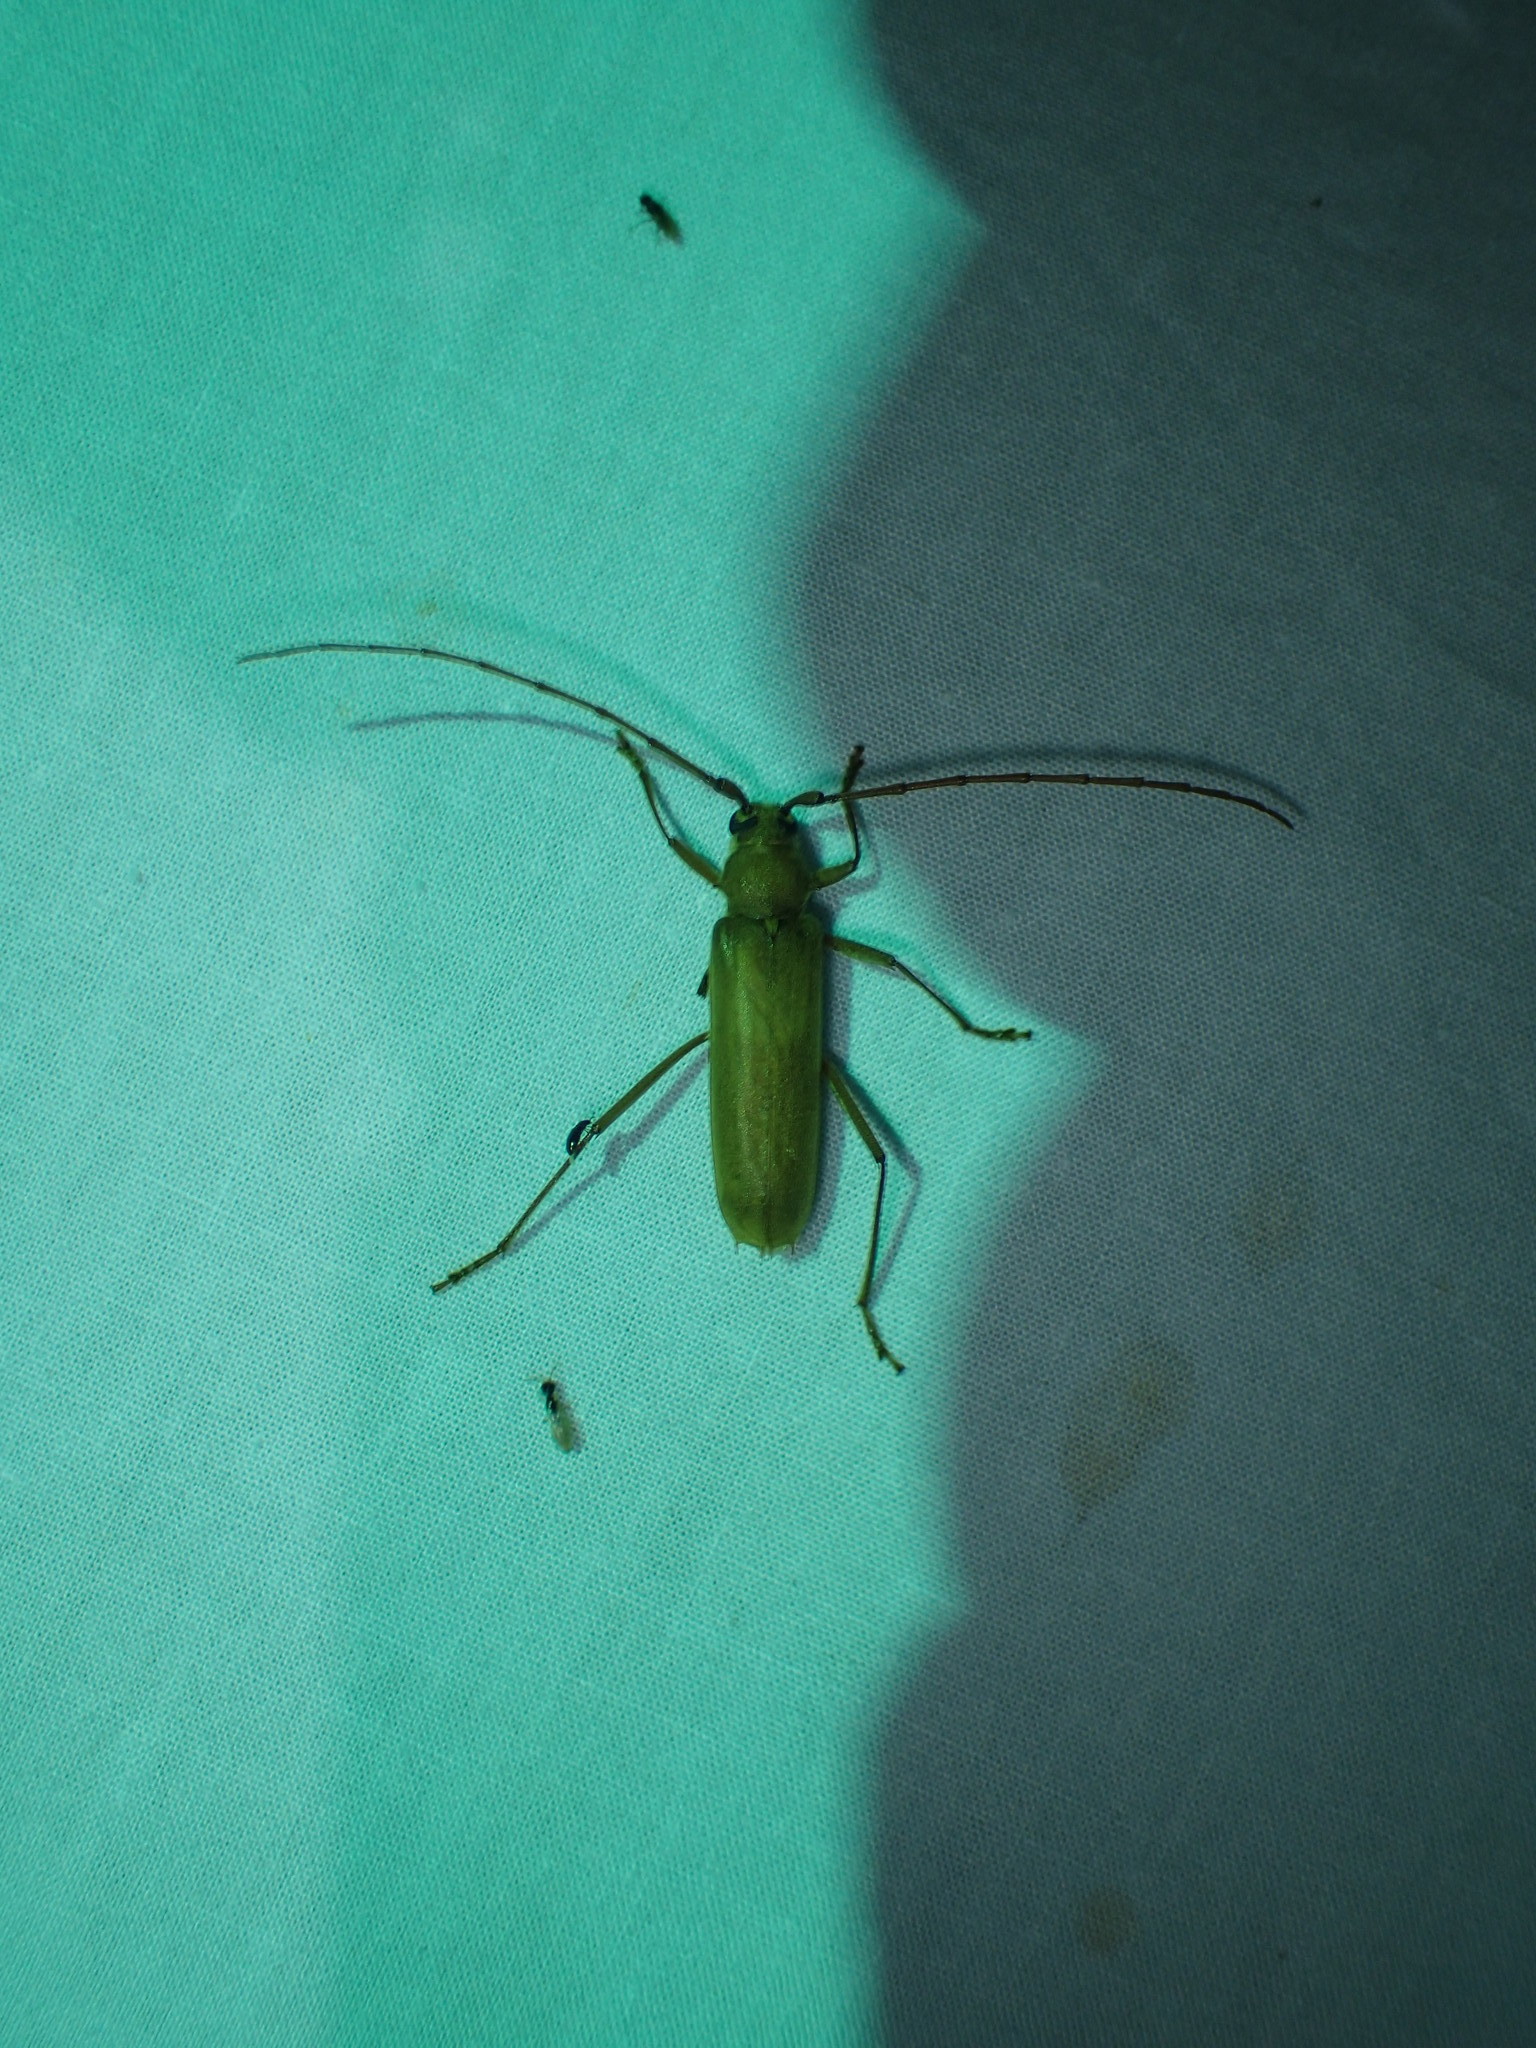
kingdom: Animalia
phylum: Arthropoda
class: Insecta
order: Coleoptera
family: Cerambycidae
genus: Knulliana
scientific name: Knulliana cincta
